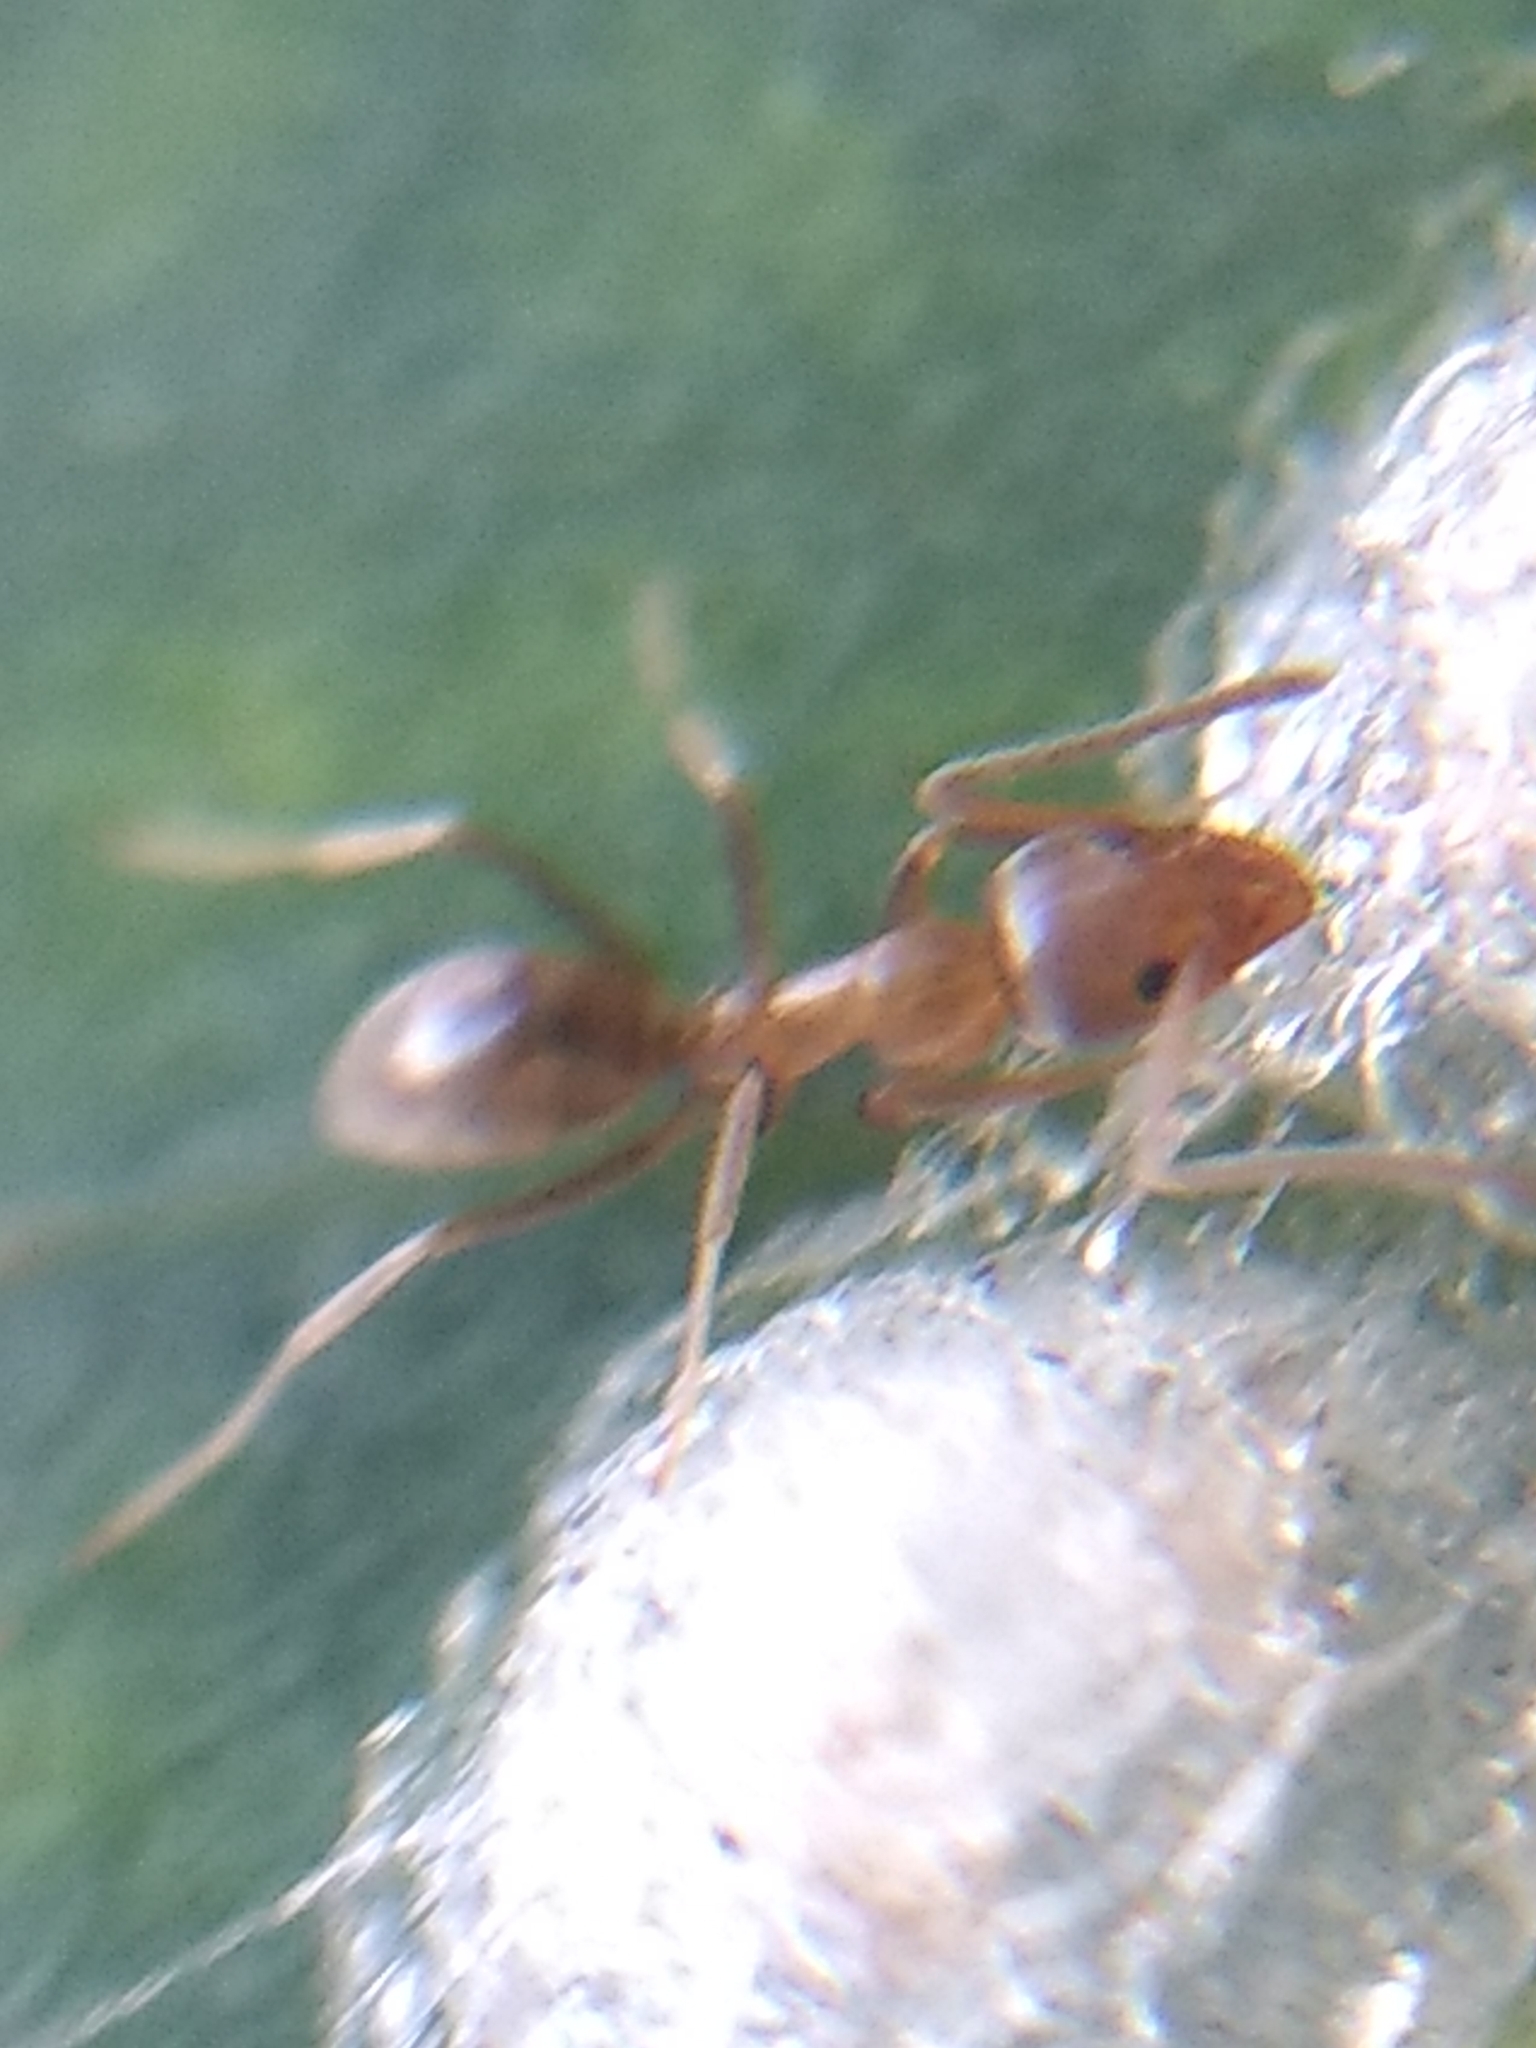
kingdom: Animalia
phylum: Arthropoda
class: Insecta
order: Hymenoptera
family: Formicidae
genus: Linepithema
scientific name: Linepithema humile
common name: Argentine ant
